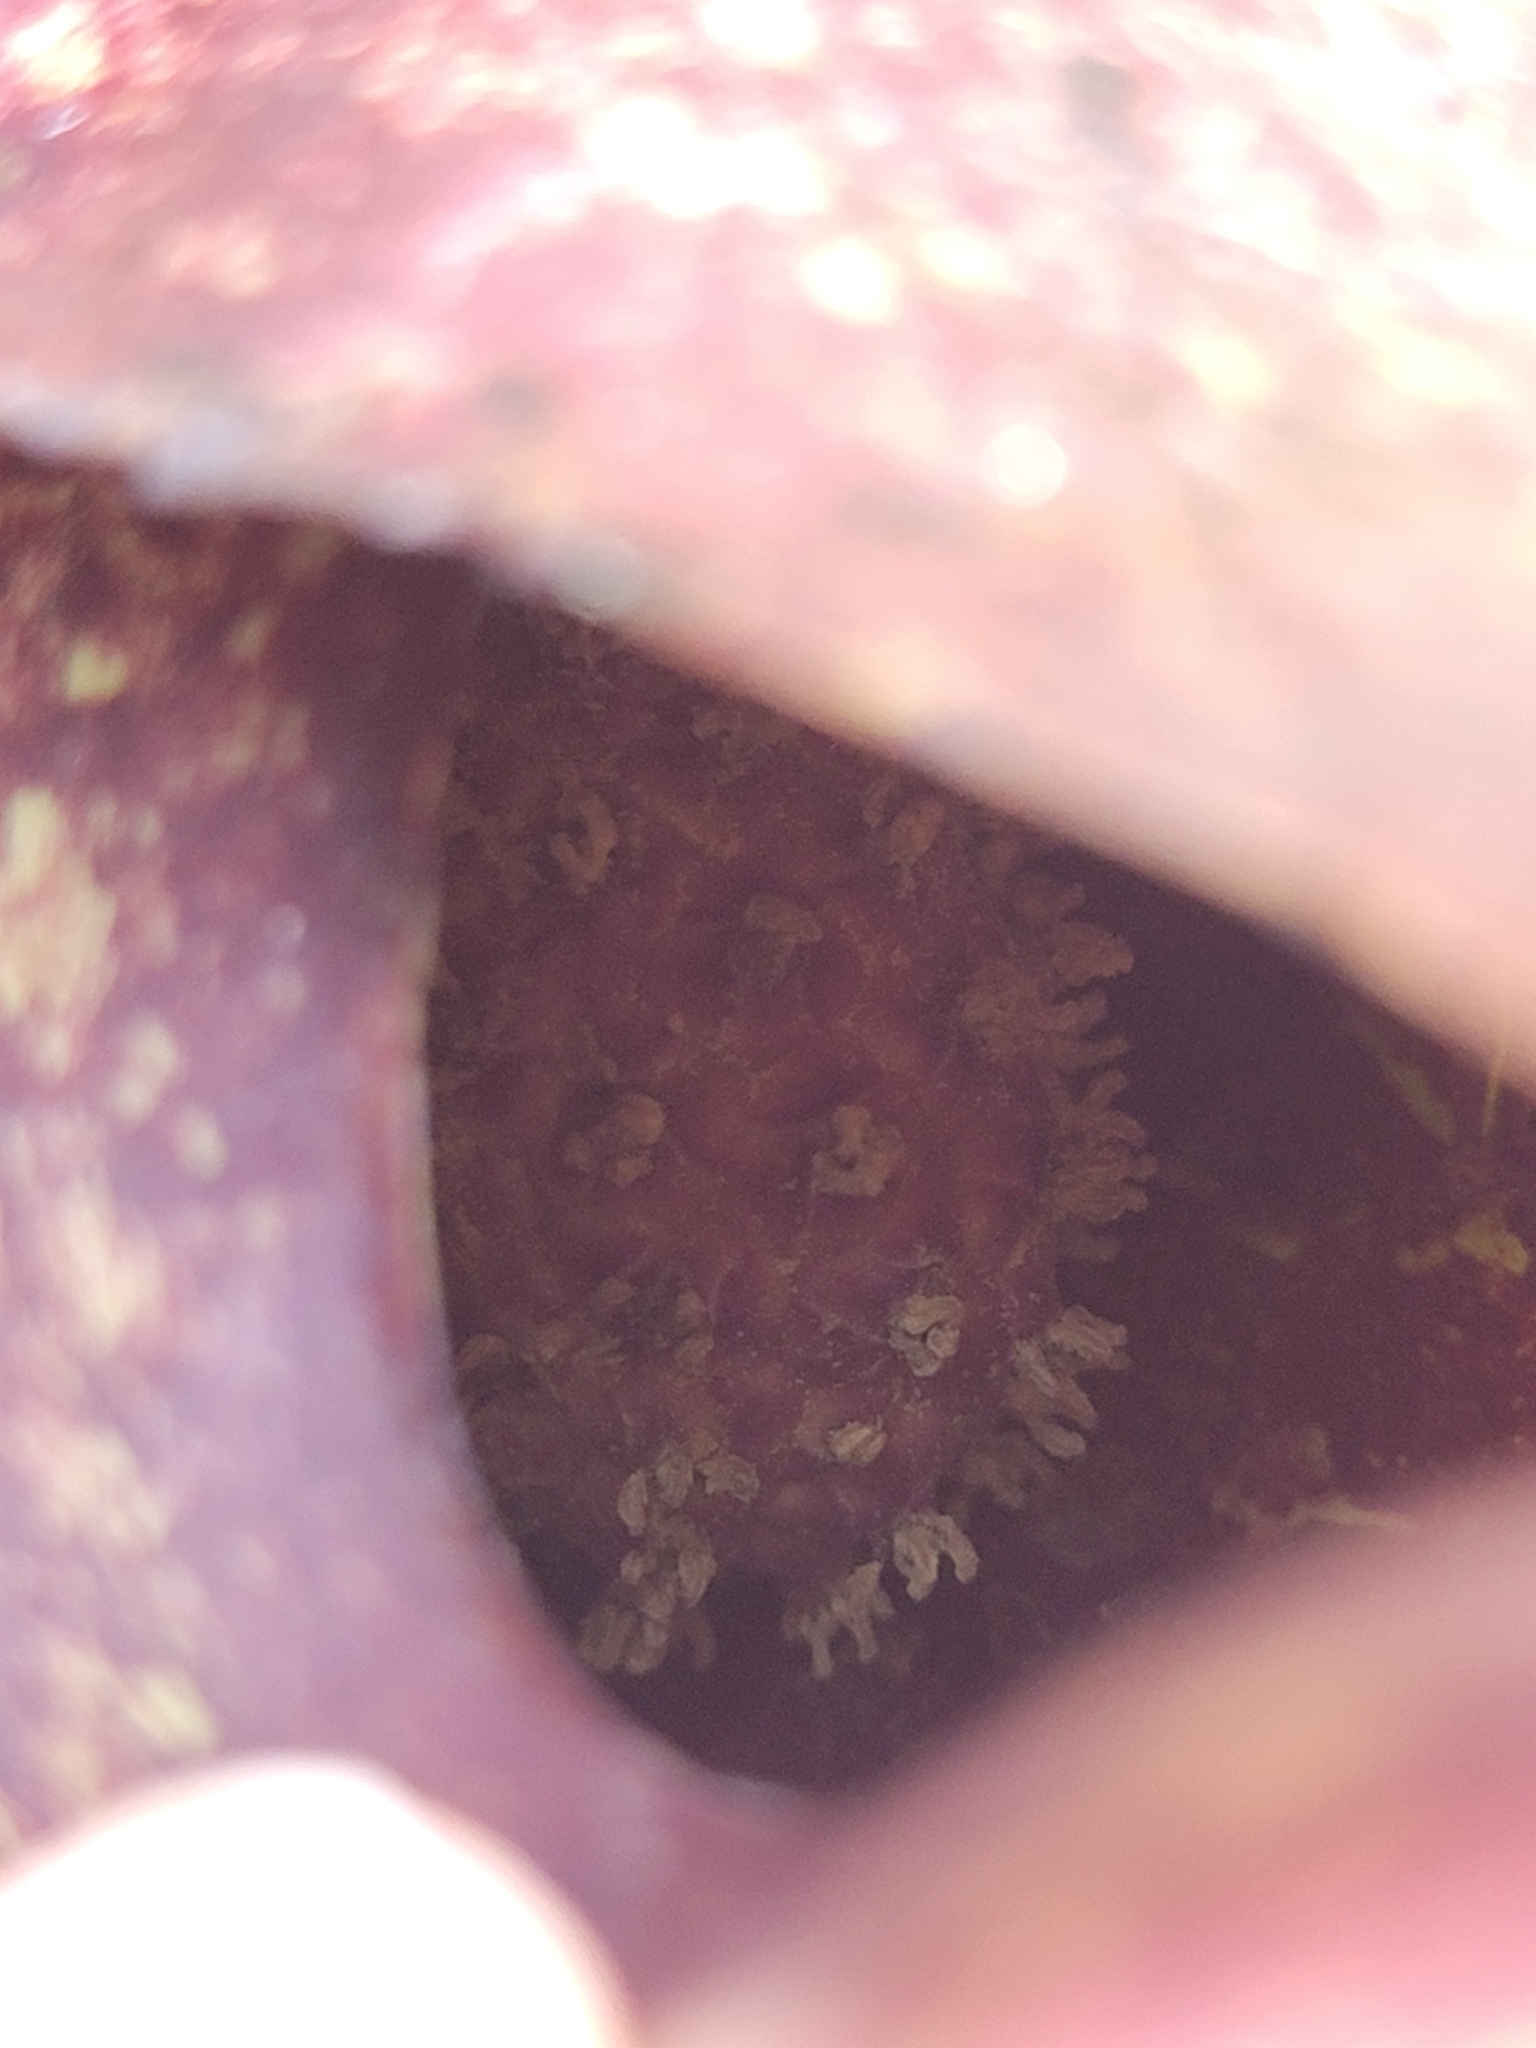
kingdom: Plantae
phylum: Tracheophyta
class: Liliopsida
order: Alismatales
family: Araceae
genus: Symplocarpus
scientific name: Symplocarpus foetidus
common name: Eastern skunk cabbage
